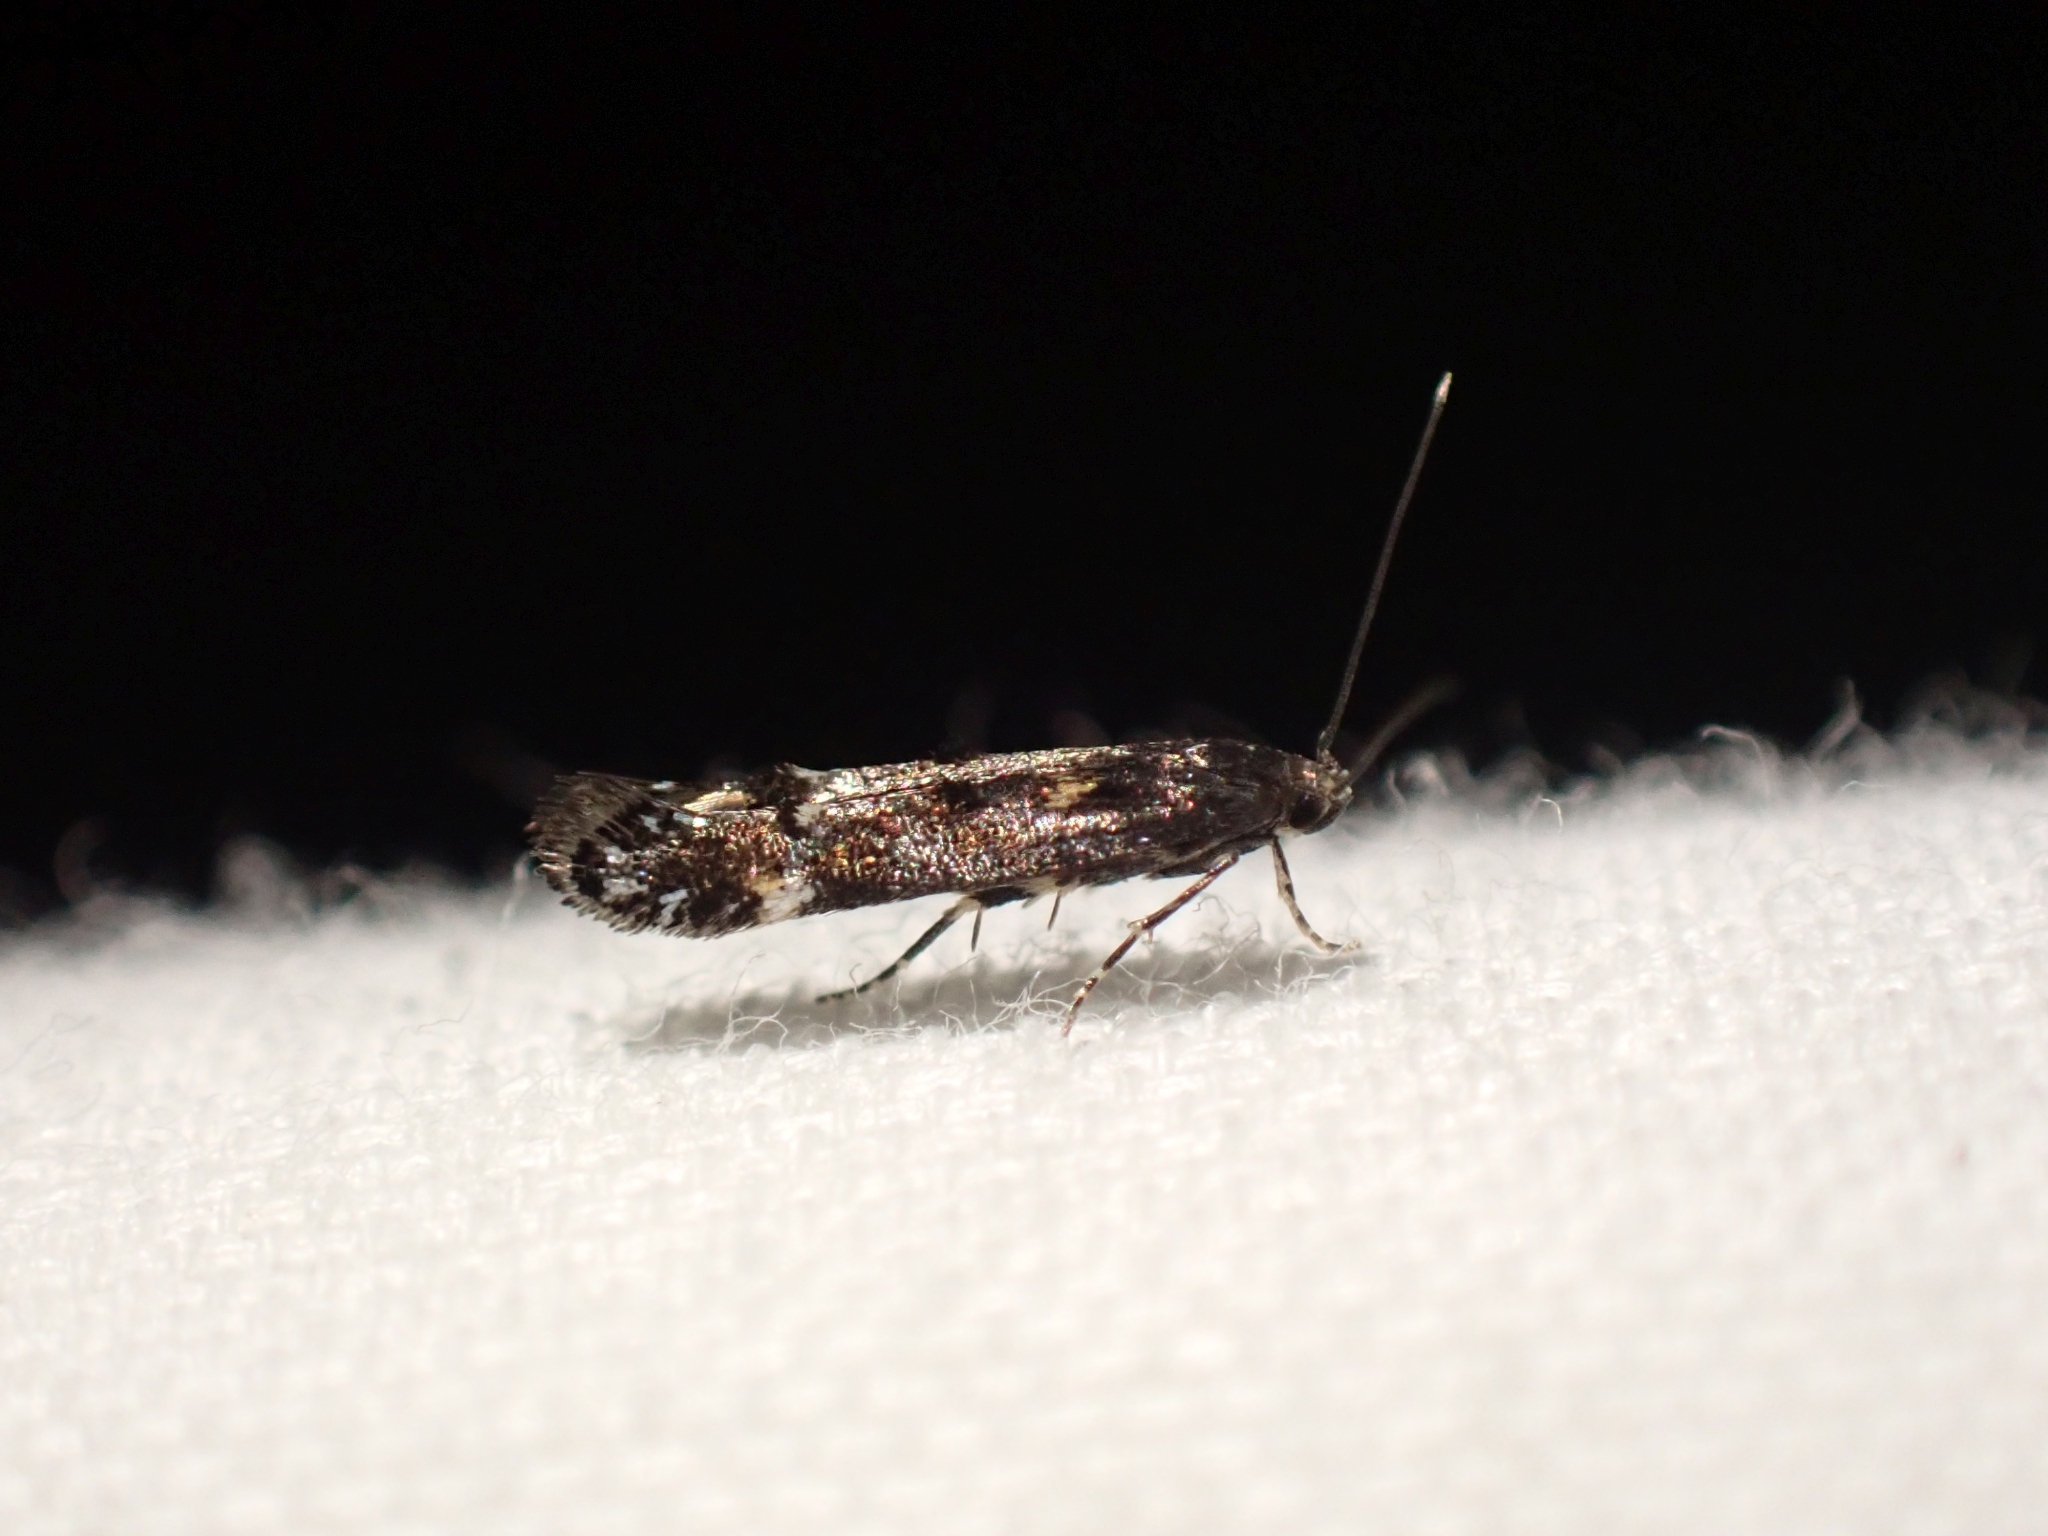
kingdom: Animalia
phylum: Arthropoda
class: Insecta
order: Lepidoptera
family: Gelechiidae
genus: Aristotelia
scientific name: Aristotelia rubidella
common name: Ruby aristotelia moth
